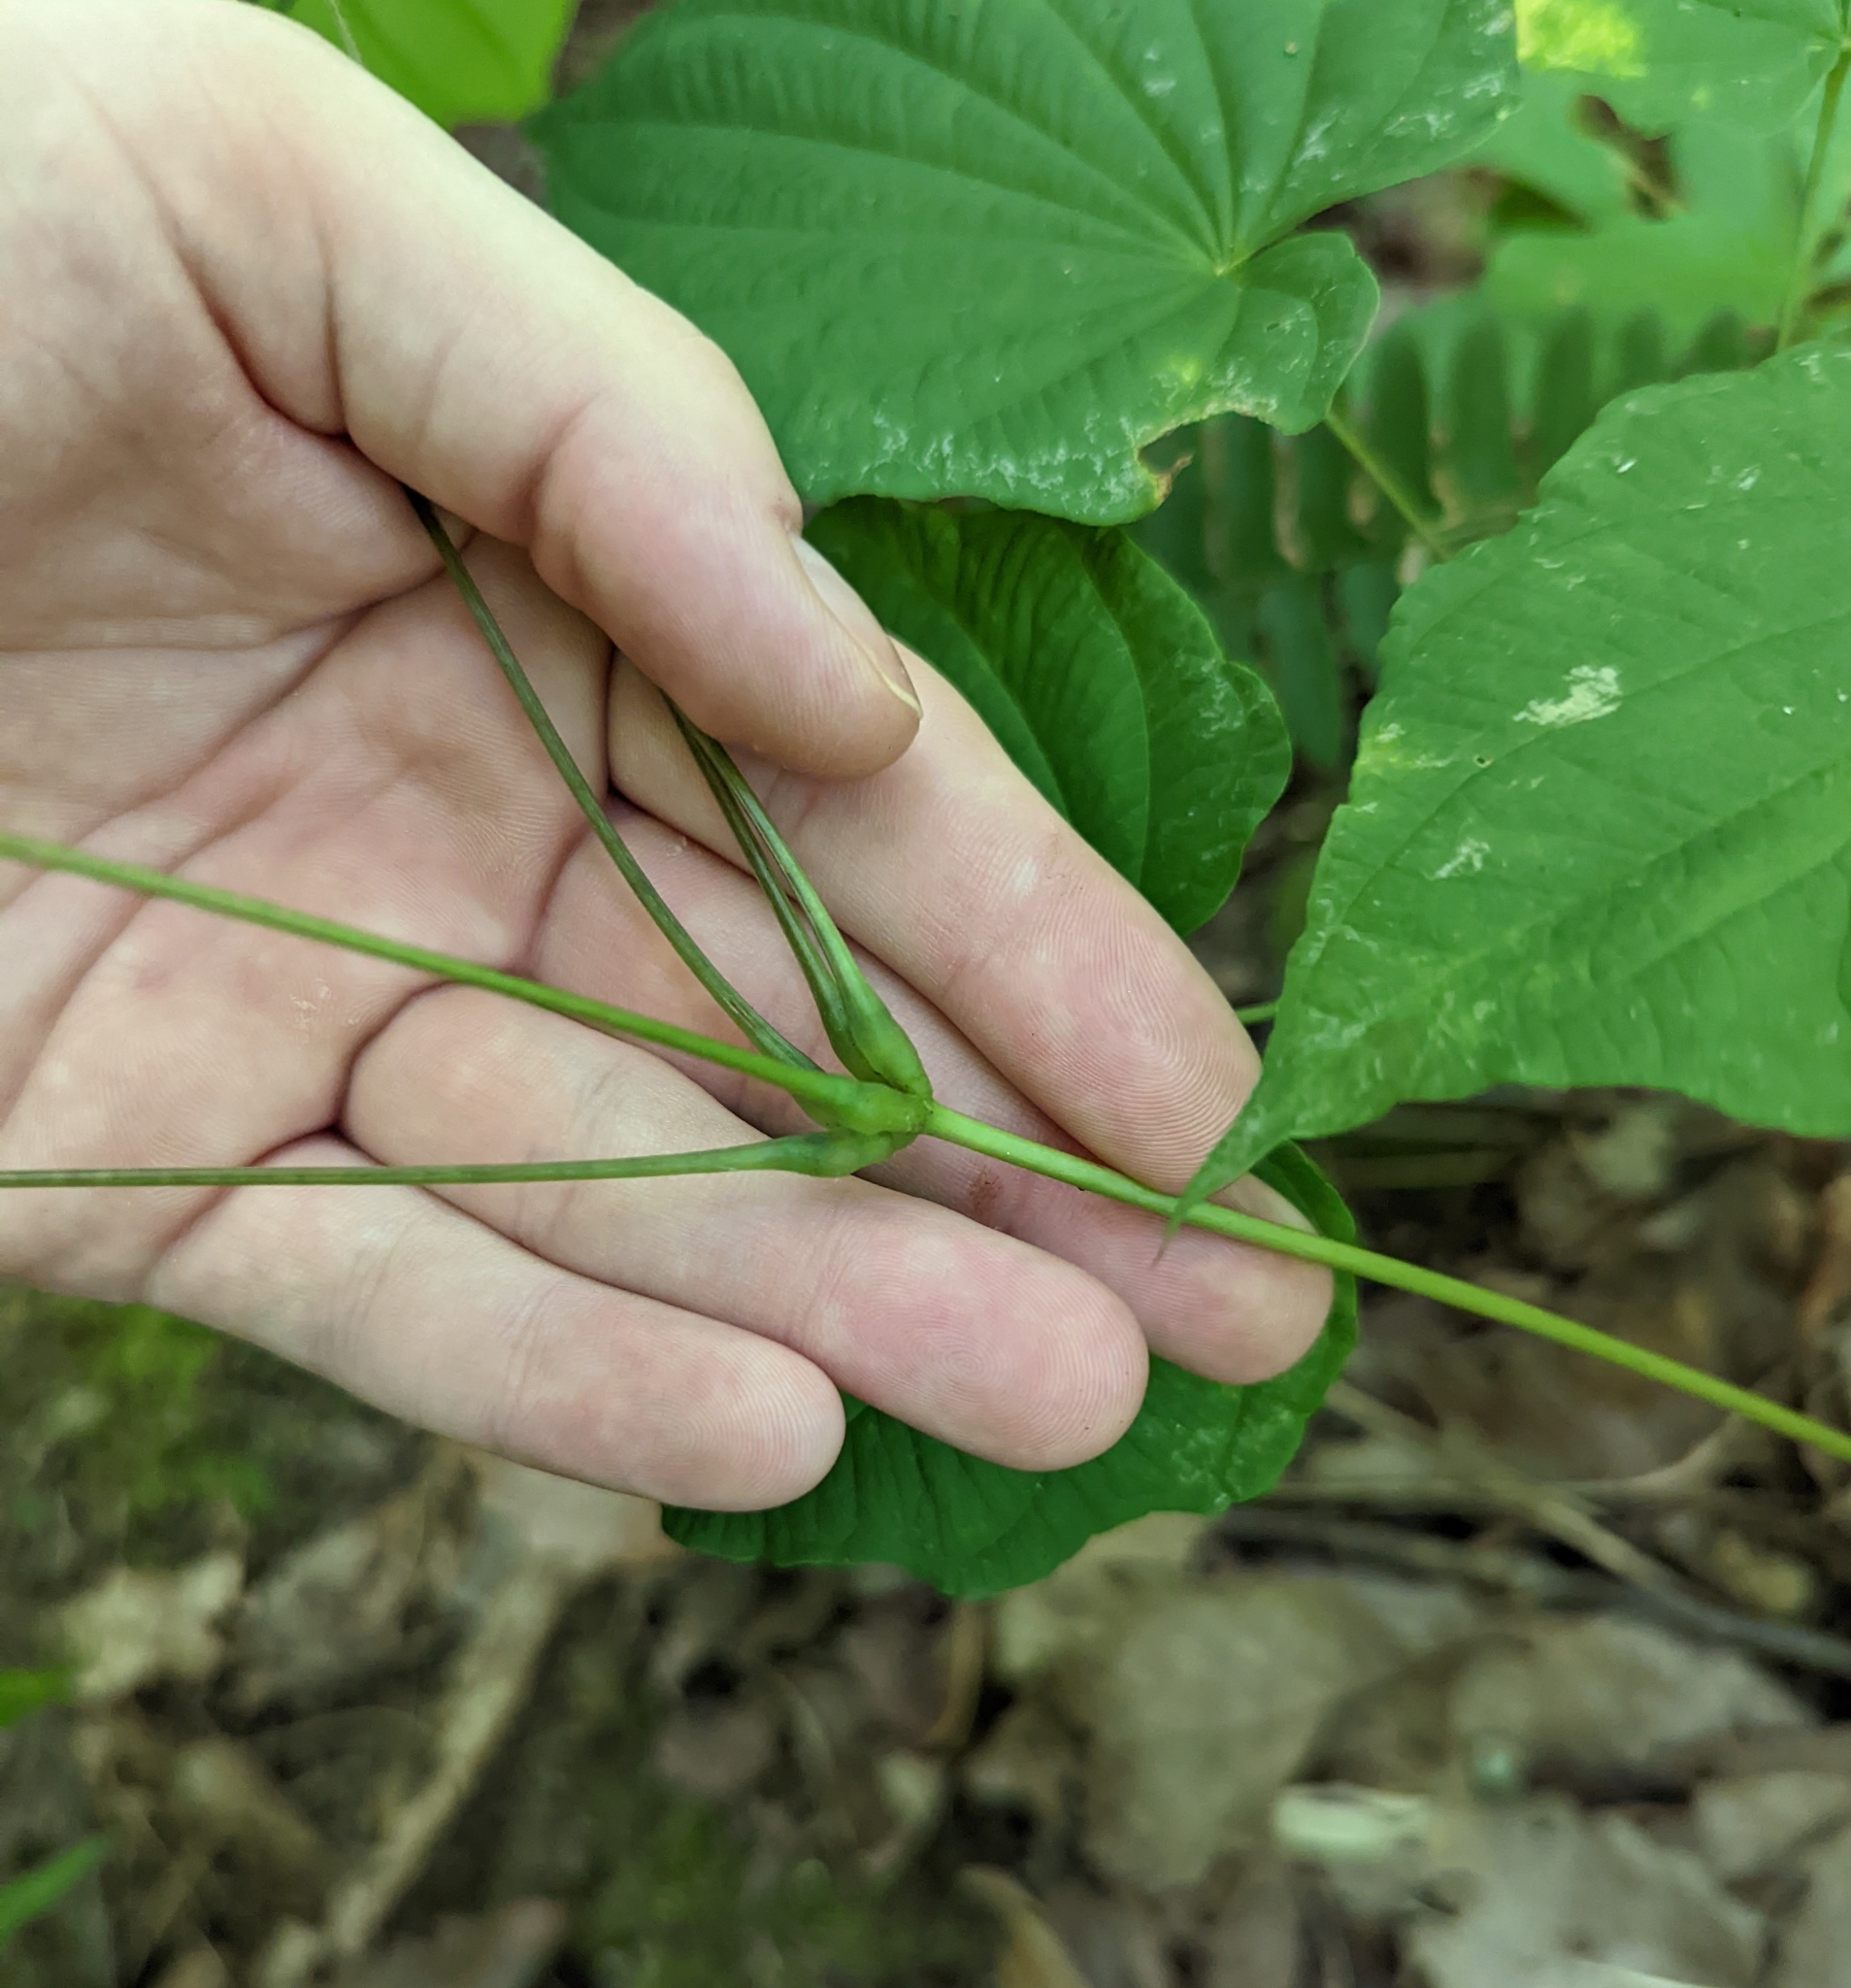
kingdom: Plantae
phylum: Tracheophyta
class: Liliopsida
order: Dioscoreales
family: Dioscoreaceae
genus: Dioscorea
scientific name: Dioscorea villosa
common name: Wild yam
